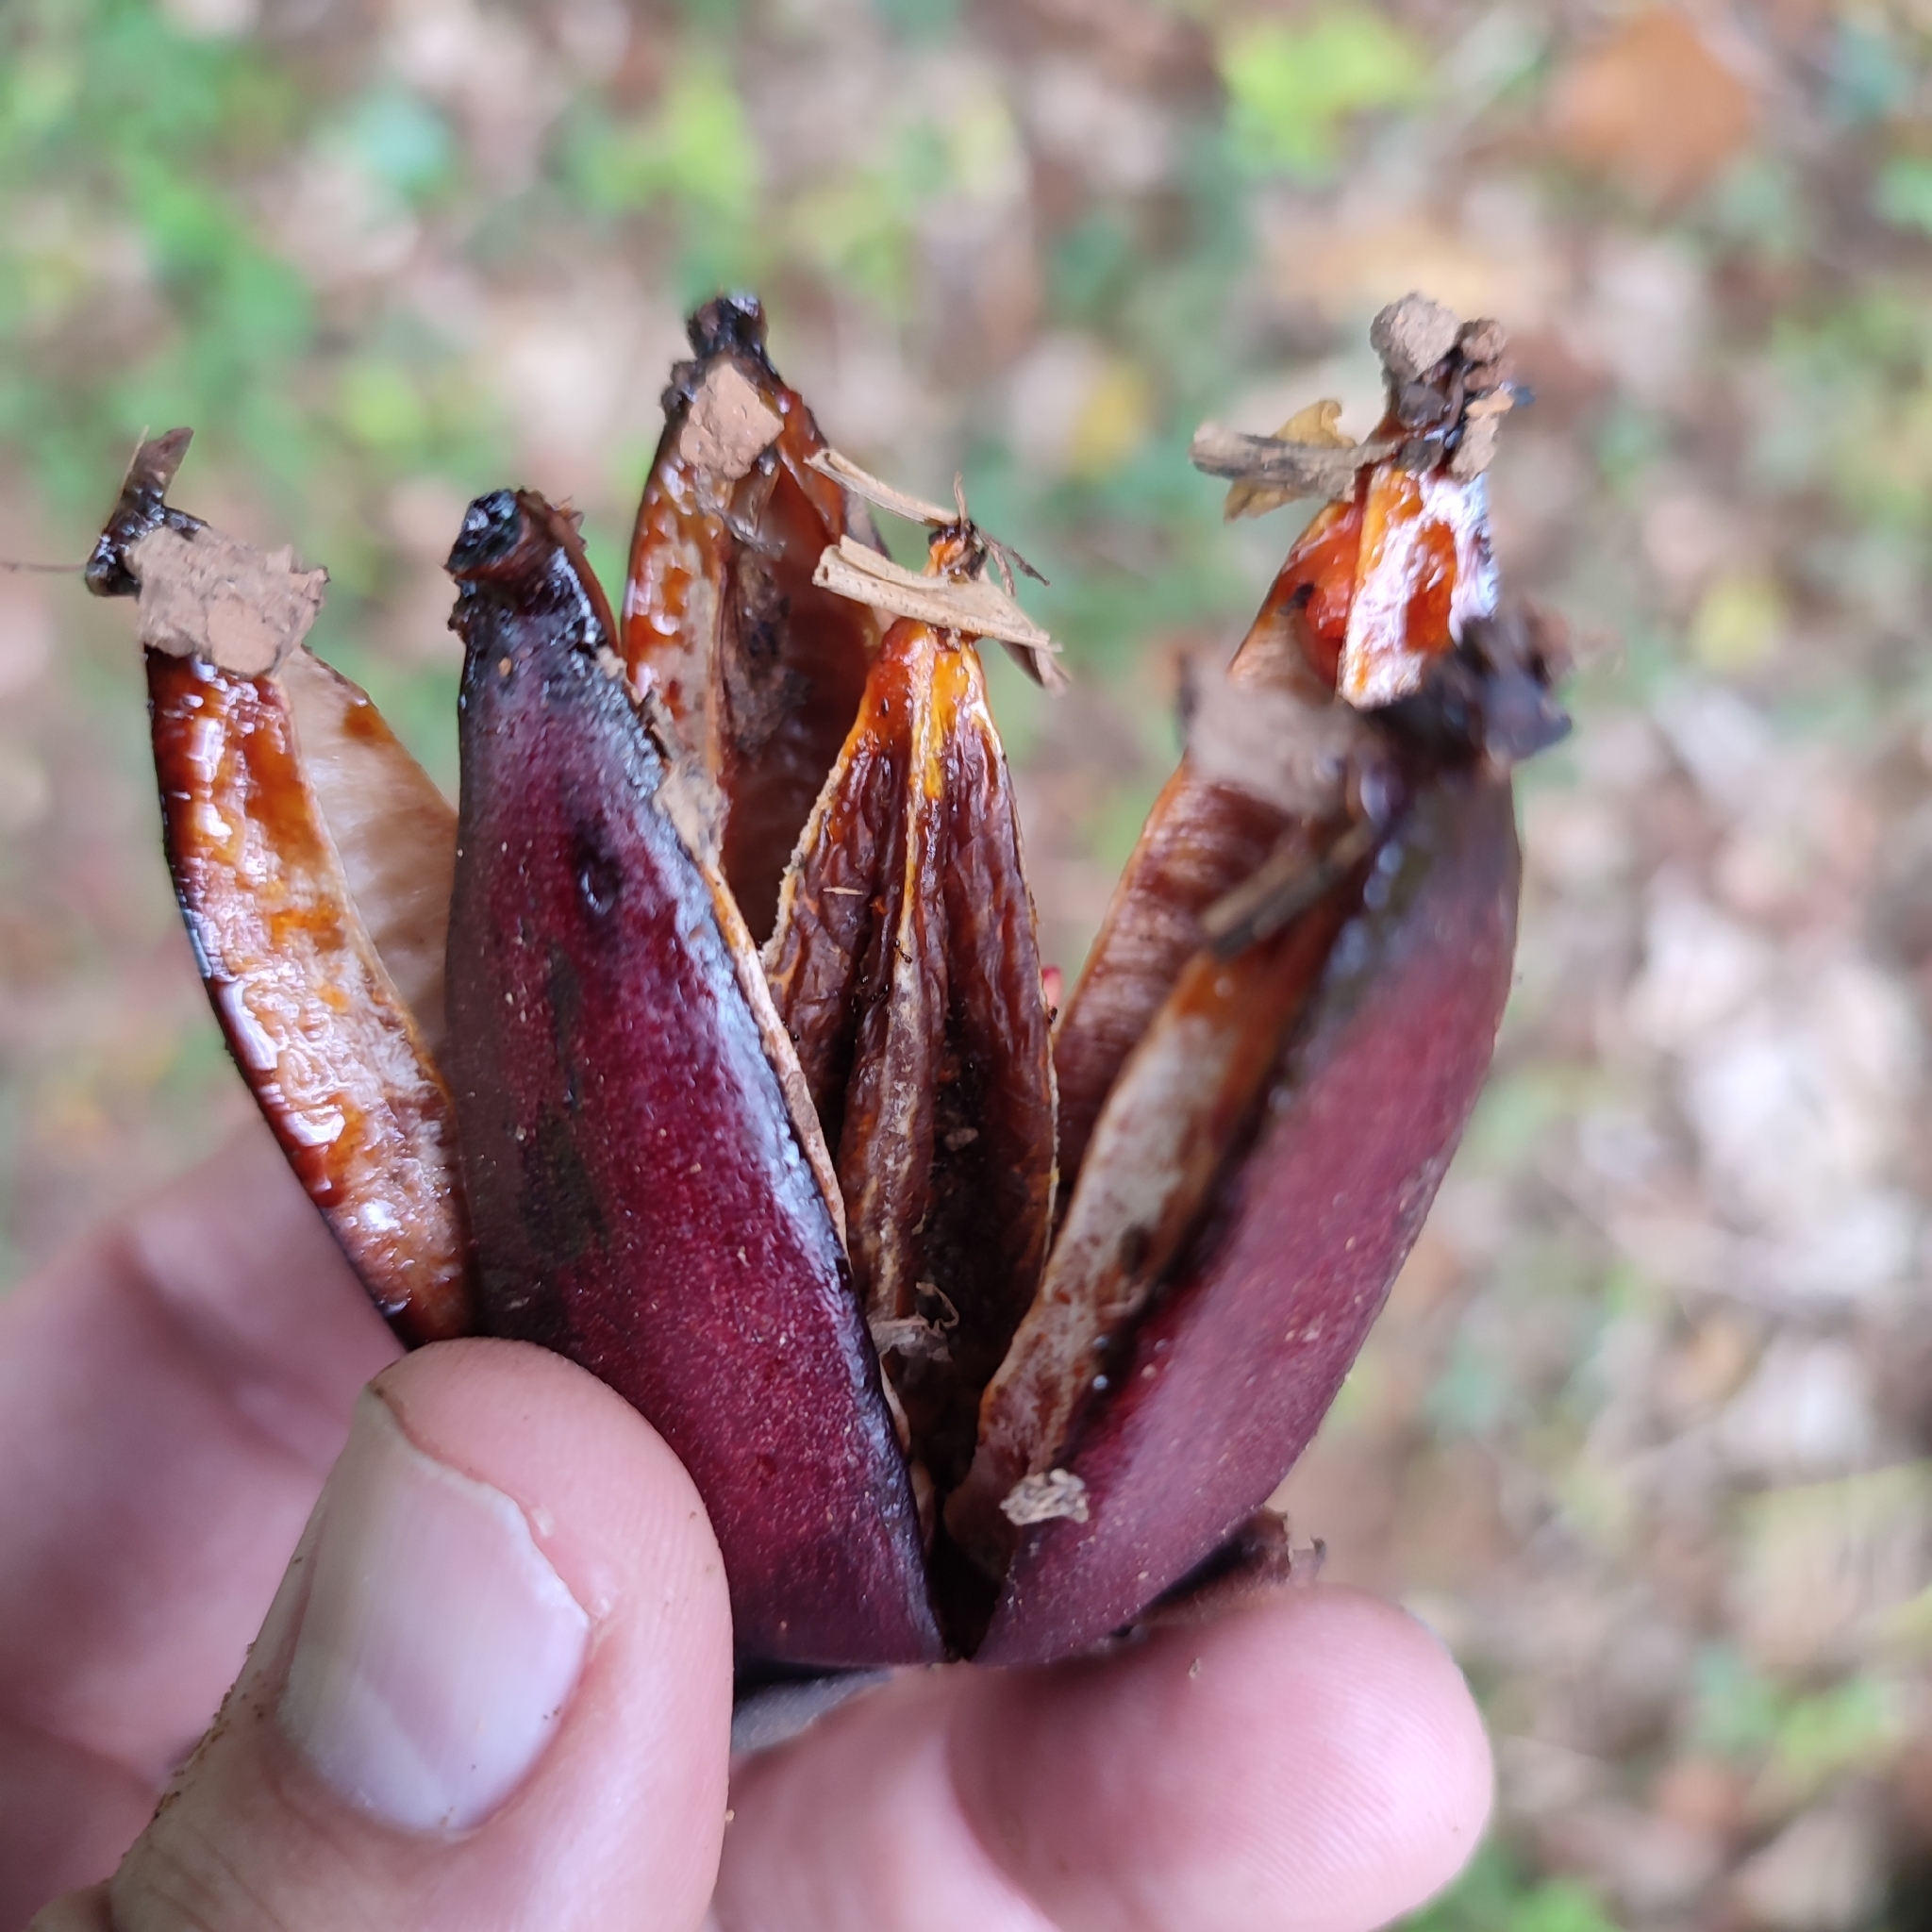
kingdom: Plantae
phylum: Tracheophyta
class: Magnoliopsida
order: Malpighiales
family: Clusiaceae
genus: Clusia
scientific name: Clusia rosea
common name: Scotch attorney
